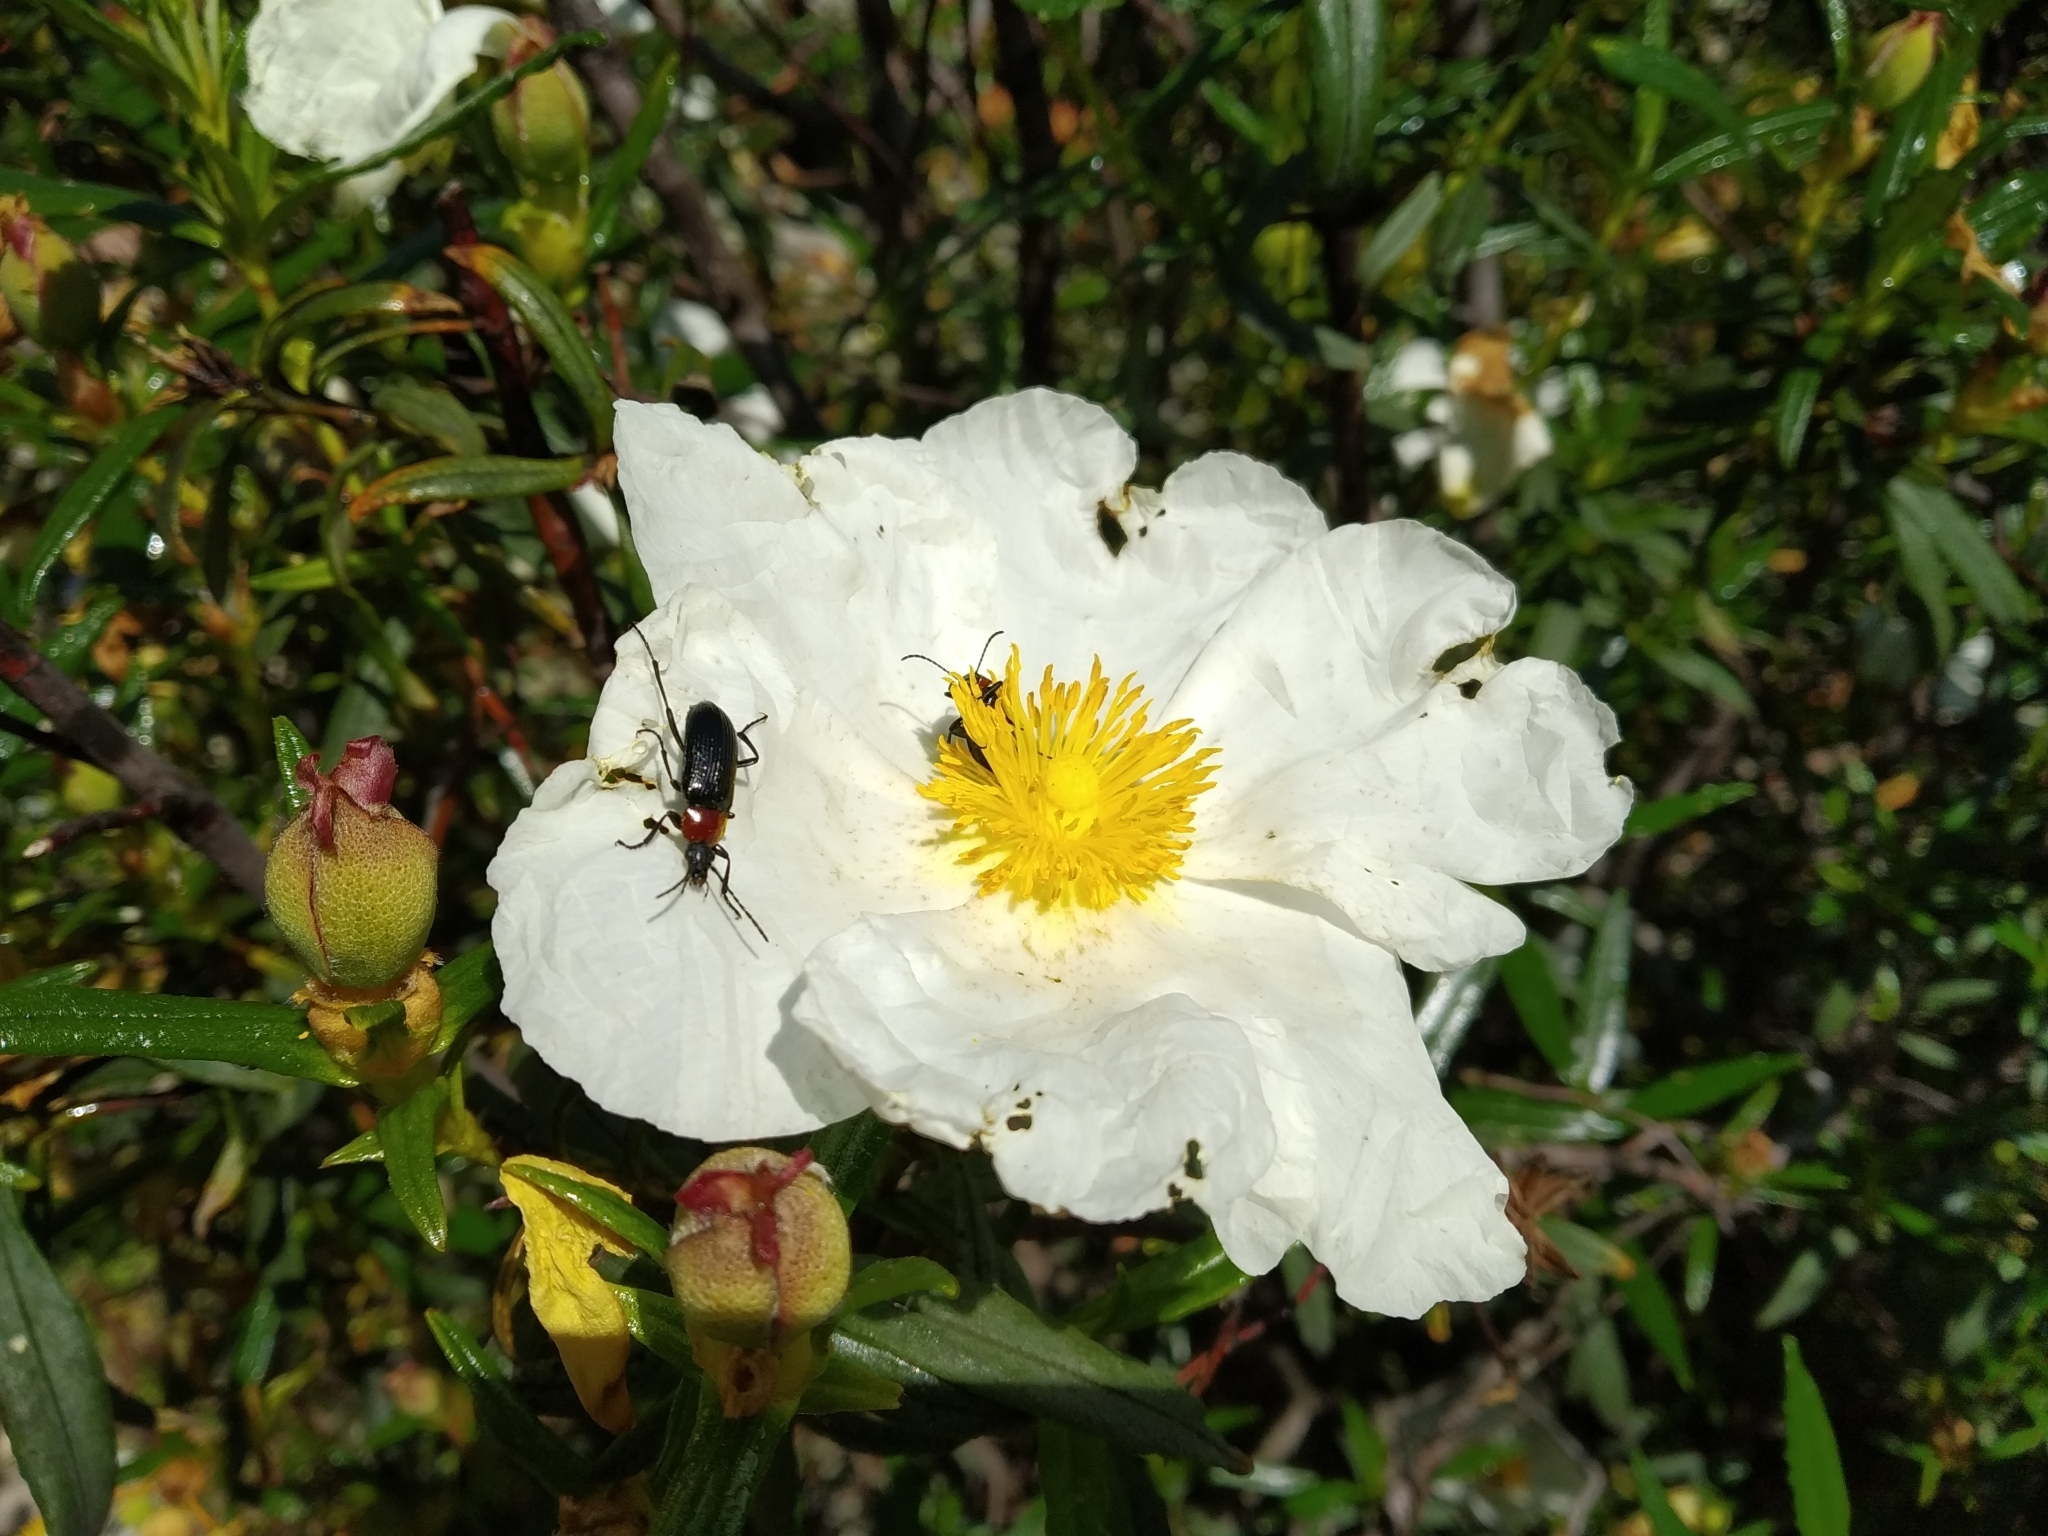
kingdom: Plantae
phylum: Tracheophyta
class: Magnoliopsida
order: Malvales
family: Cistaceae
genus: Cistus
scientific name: Cistus ladanifer
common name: Common gum cistus
